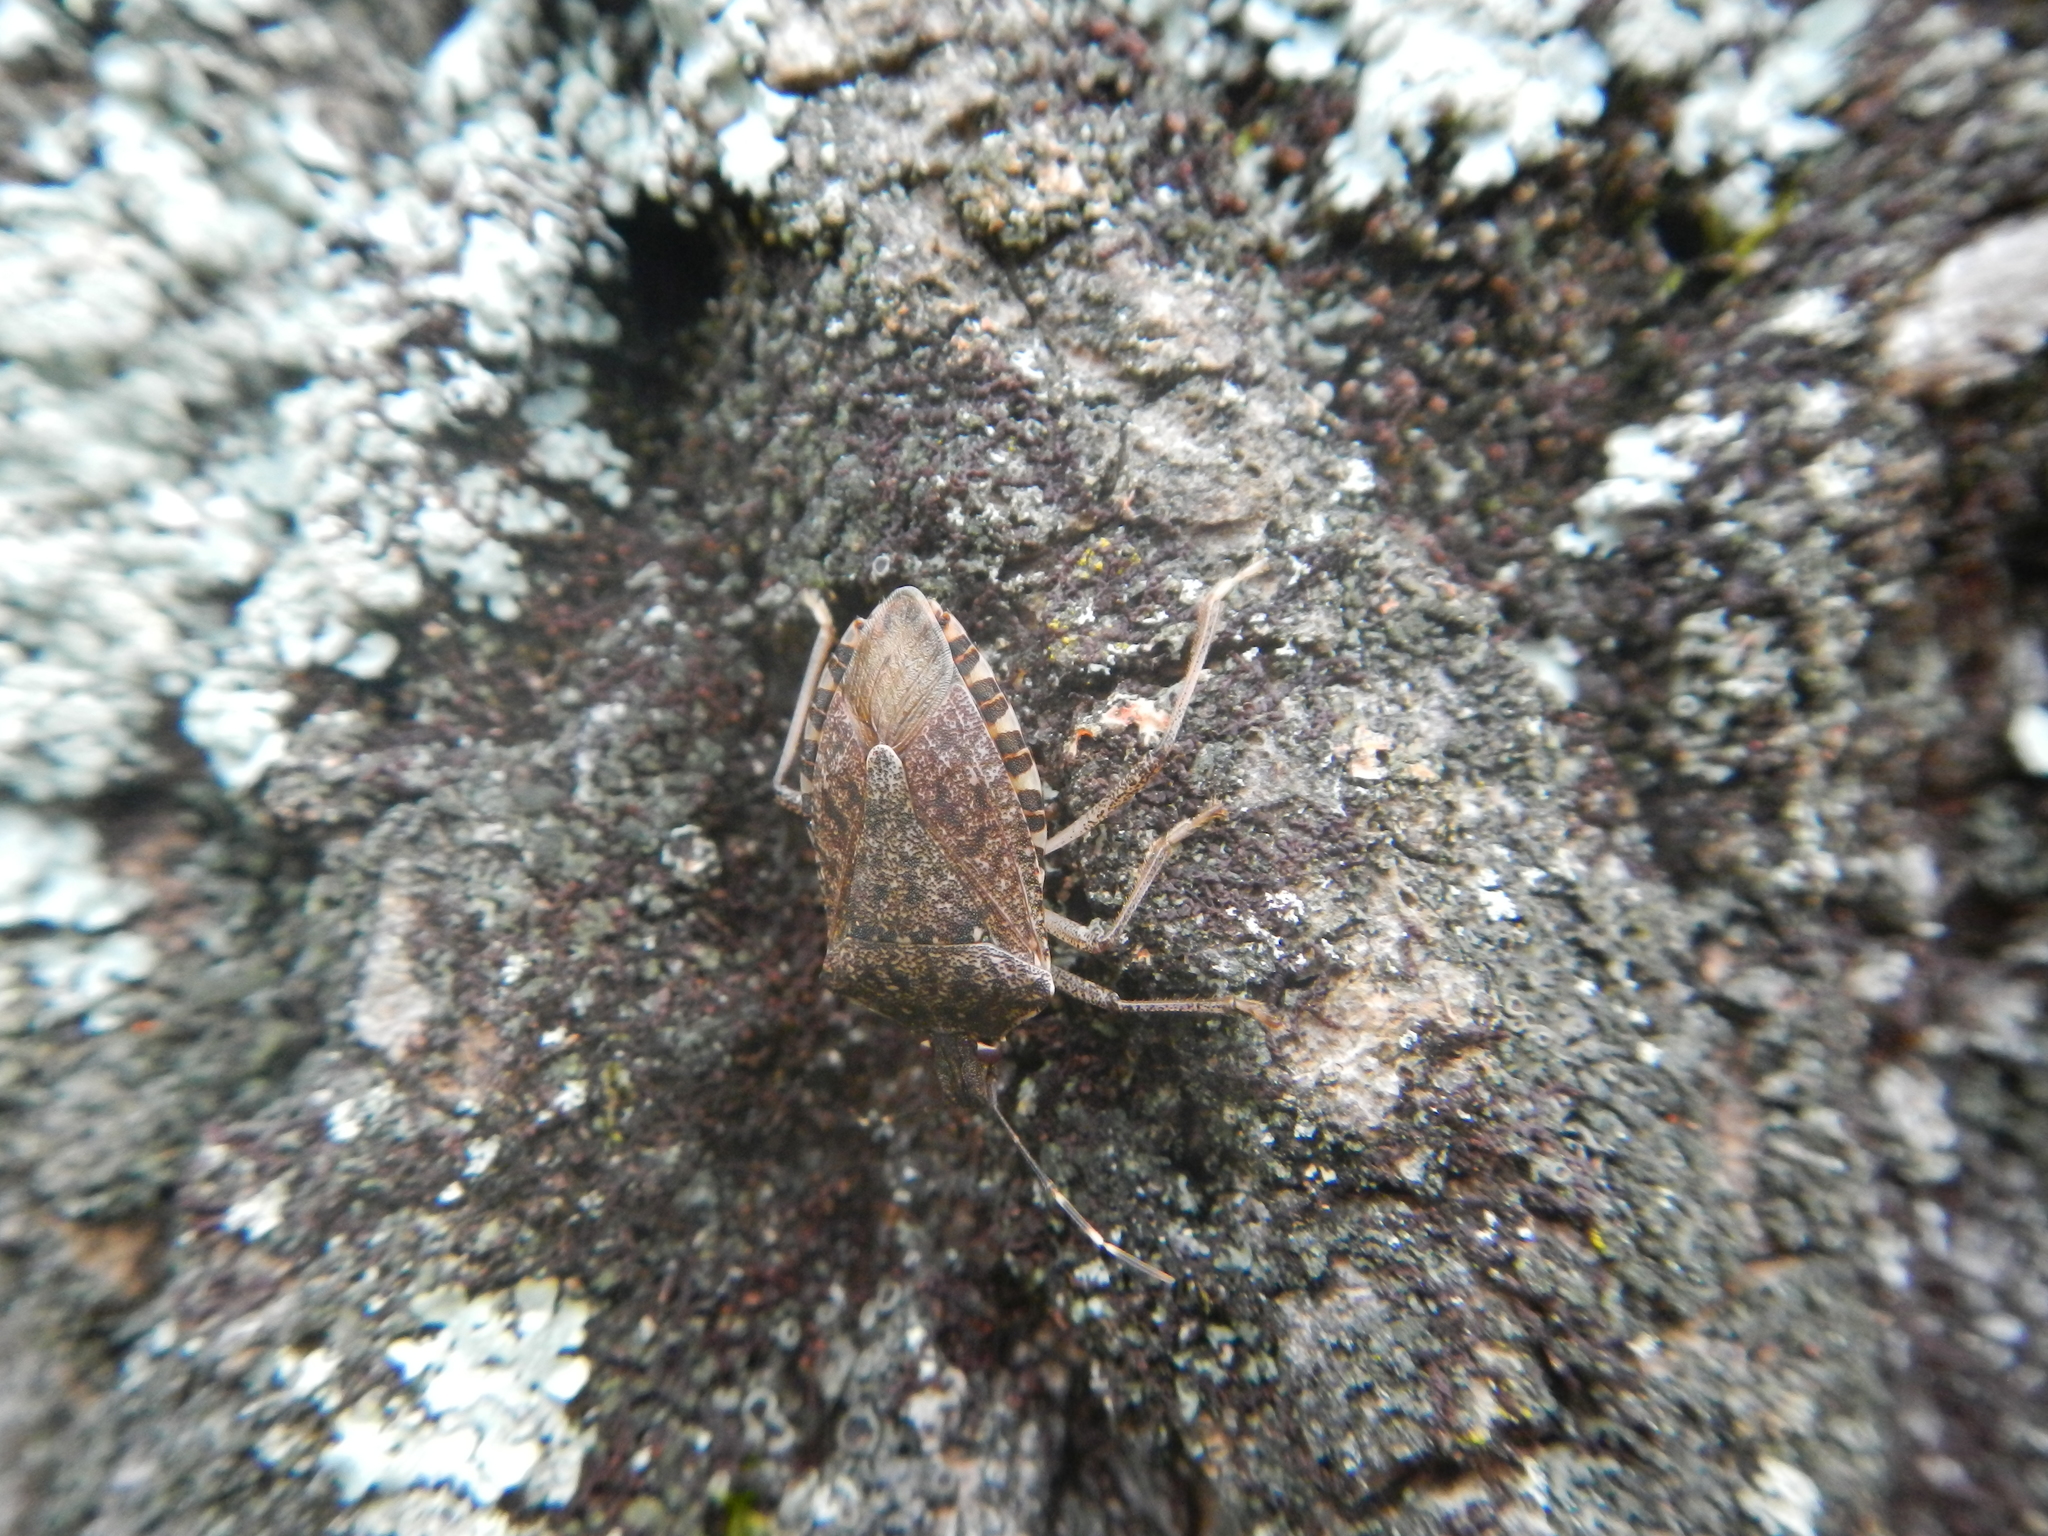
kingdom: Animalia
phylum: Arthropoda
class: Insecta
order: Hemiptera
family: Pentatomidae
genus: Halyomorpha
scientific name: Halyomorpha halys
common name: Brown marmorated stink bug
